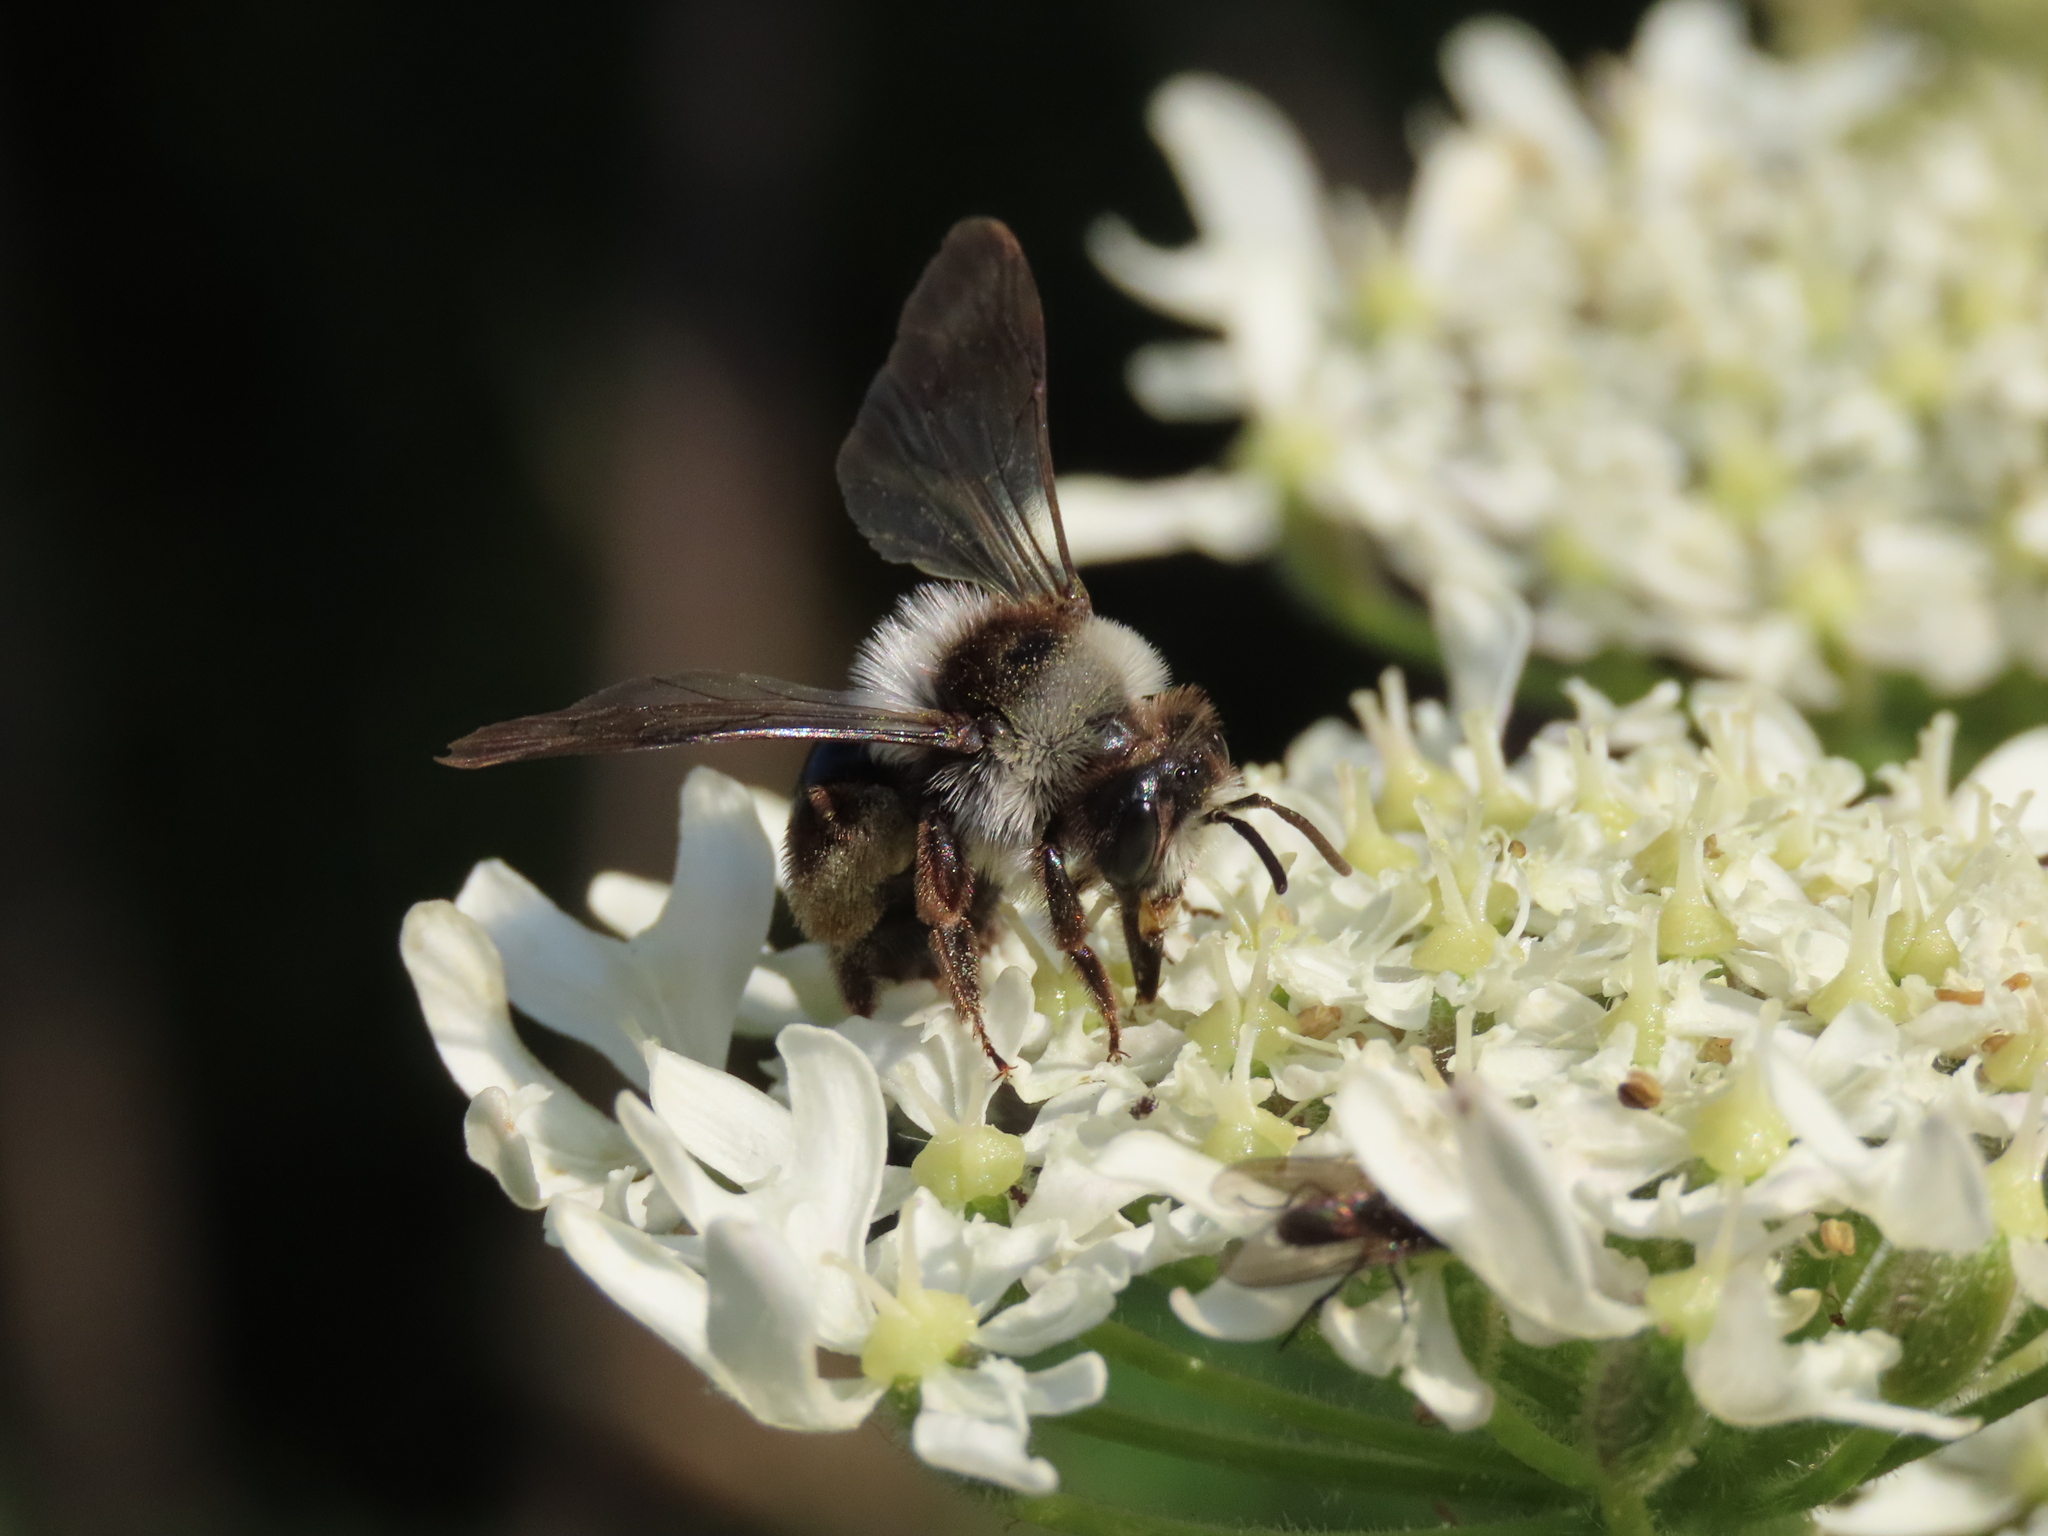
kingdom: Animalia
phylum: Arthropoda
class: Insecta
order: Hymenoptera
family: Andrenidae
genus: Andrena
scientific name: Andrena cineraria
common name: Ashy mining bee
